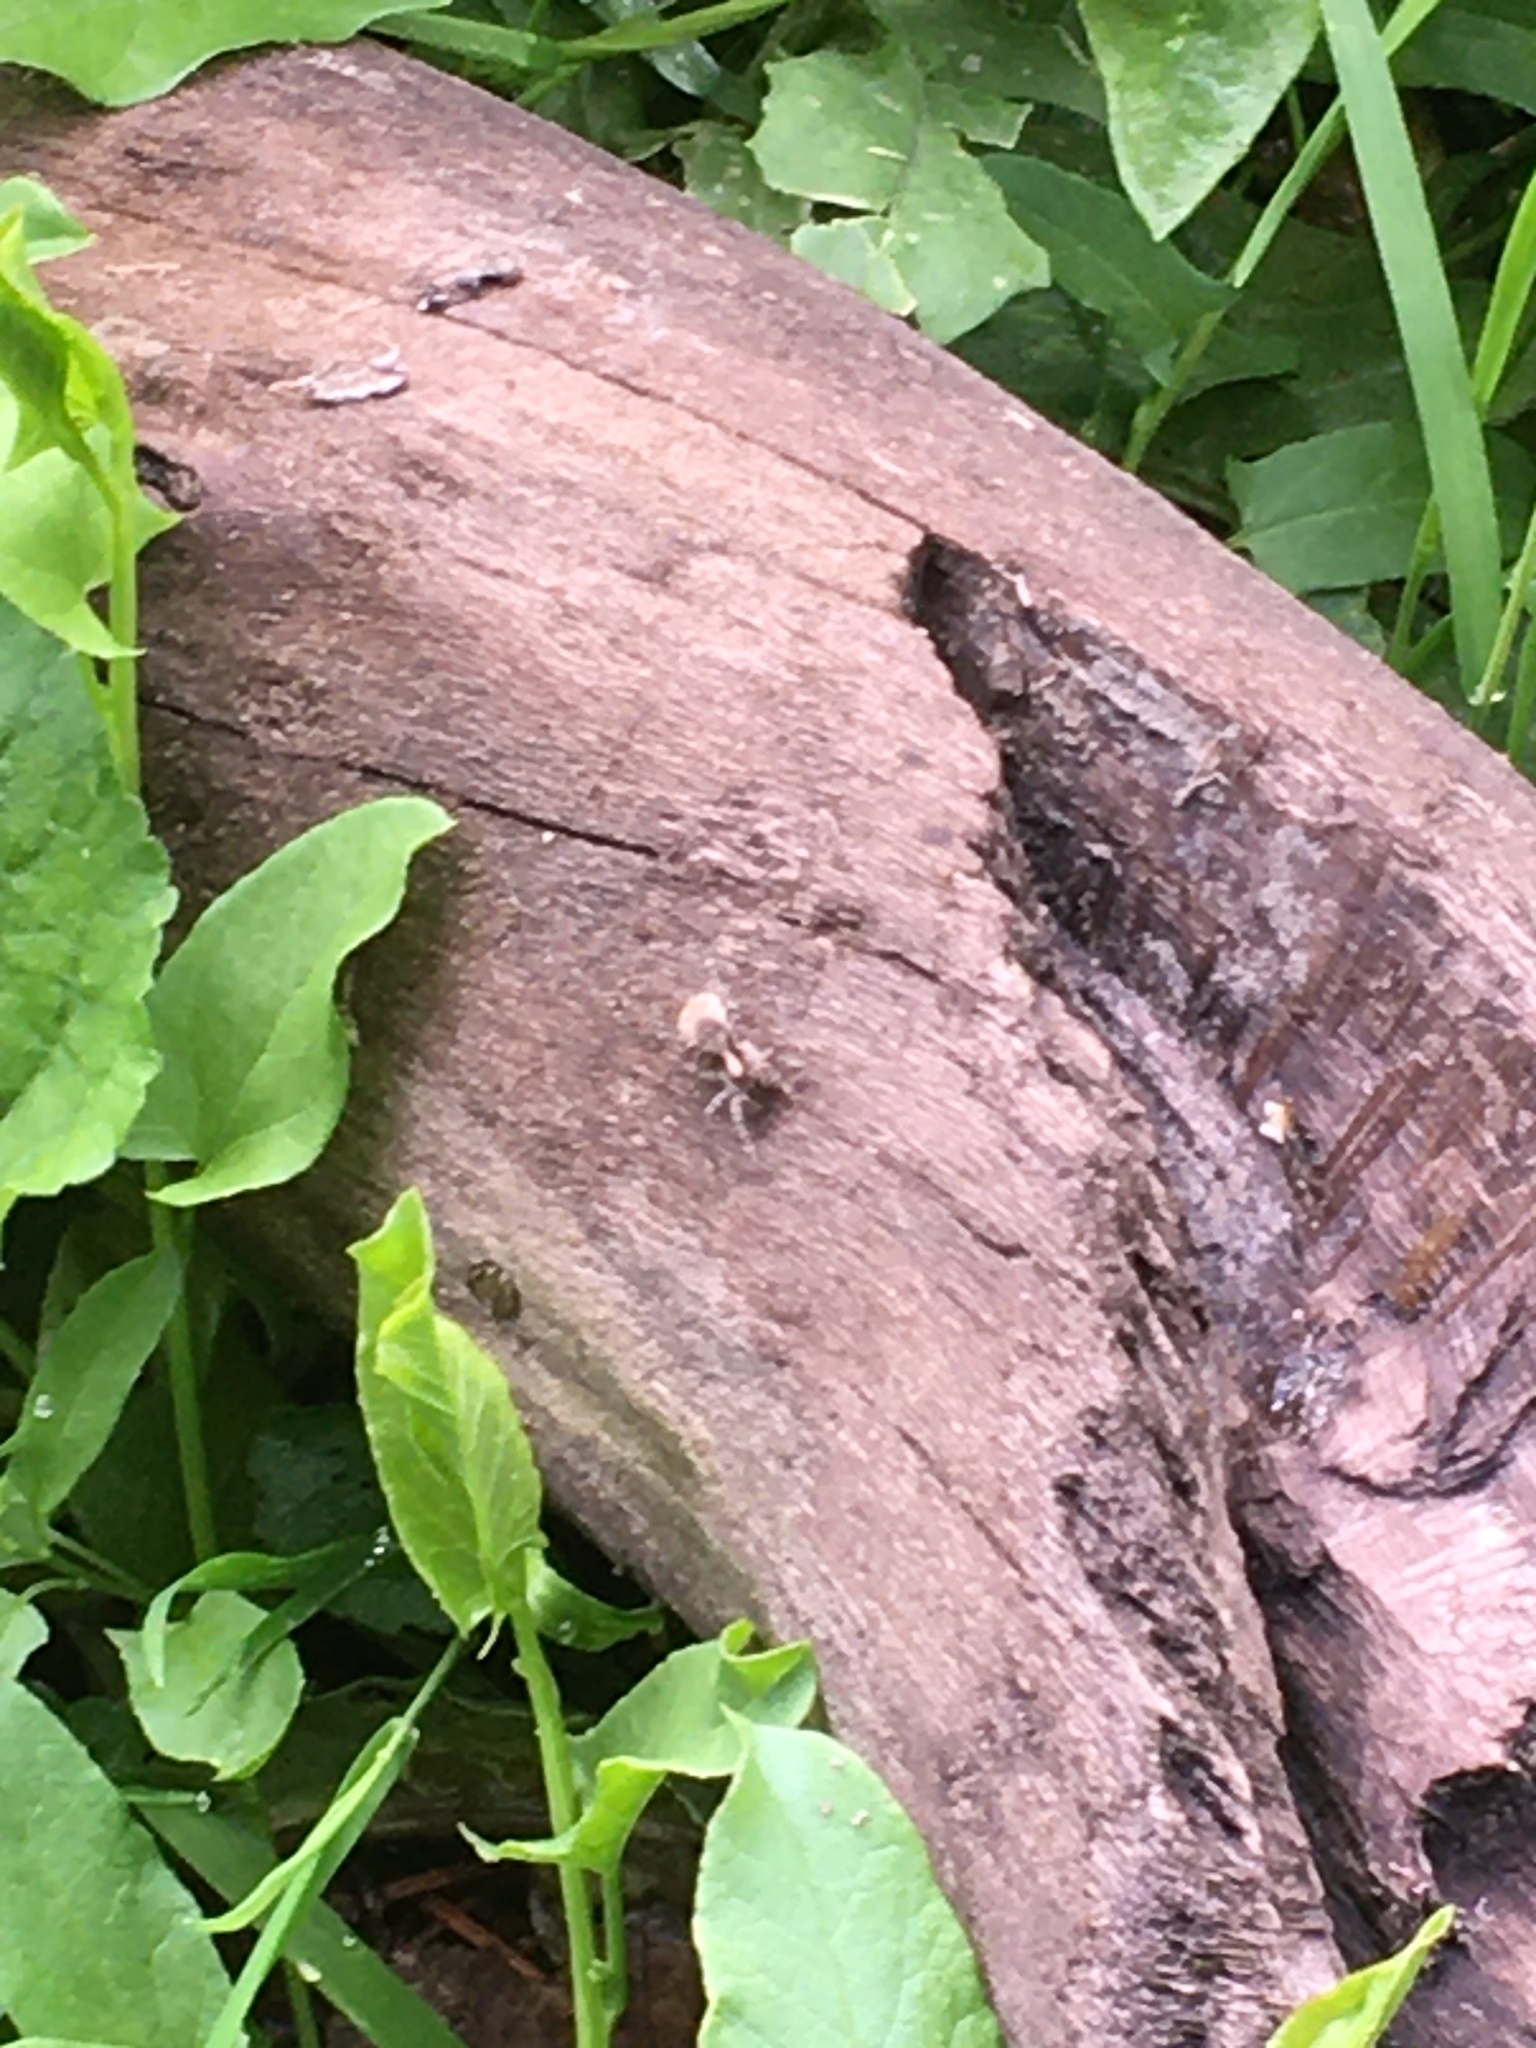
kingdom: Animalia
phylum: Arthropoda
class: Arachnida
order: Araneae
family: Lycosidae
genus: Xerolycosa
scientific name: Xerolycosa nemoralis
